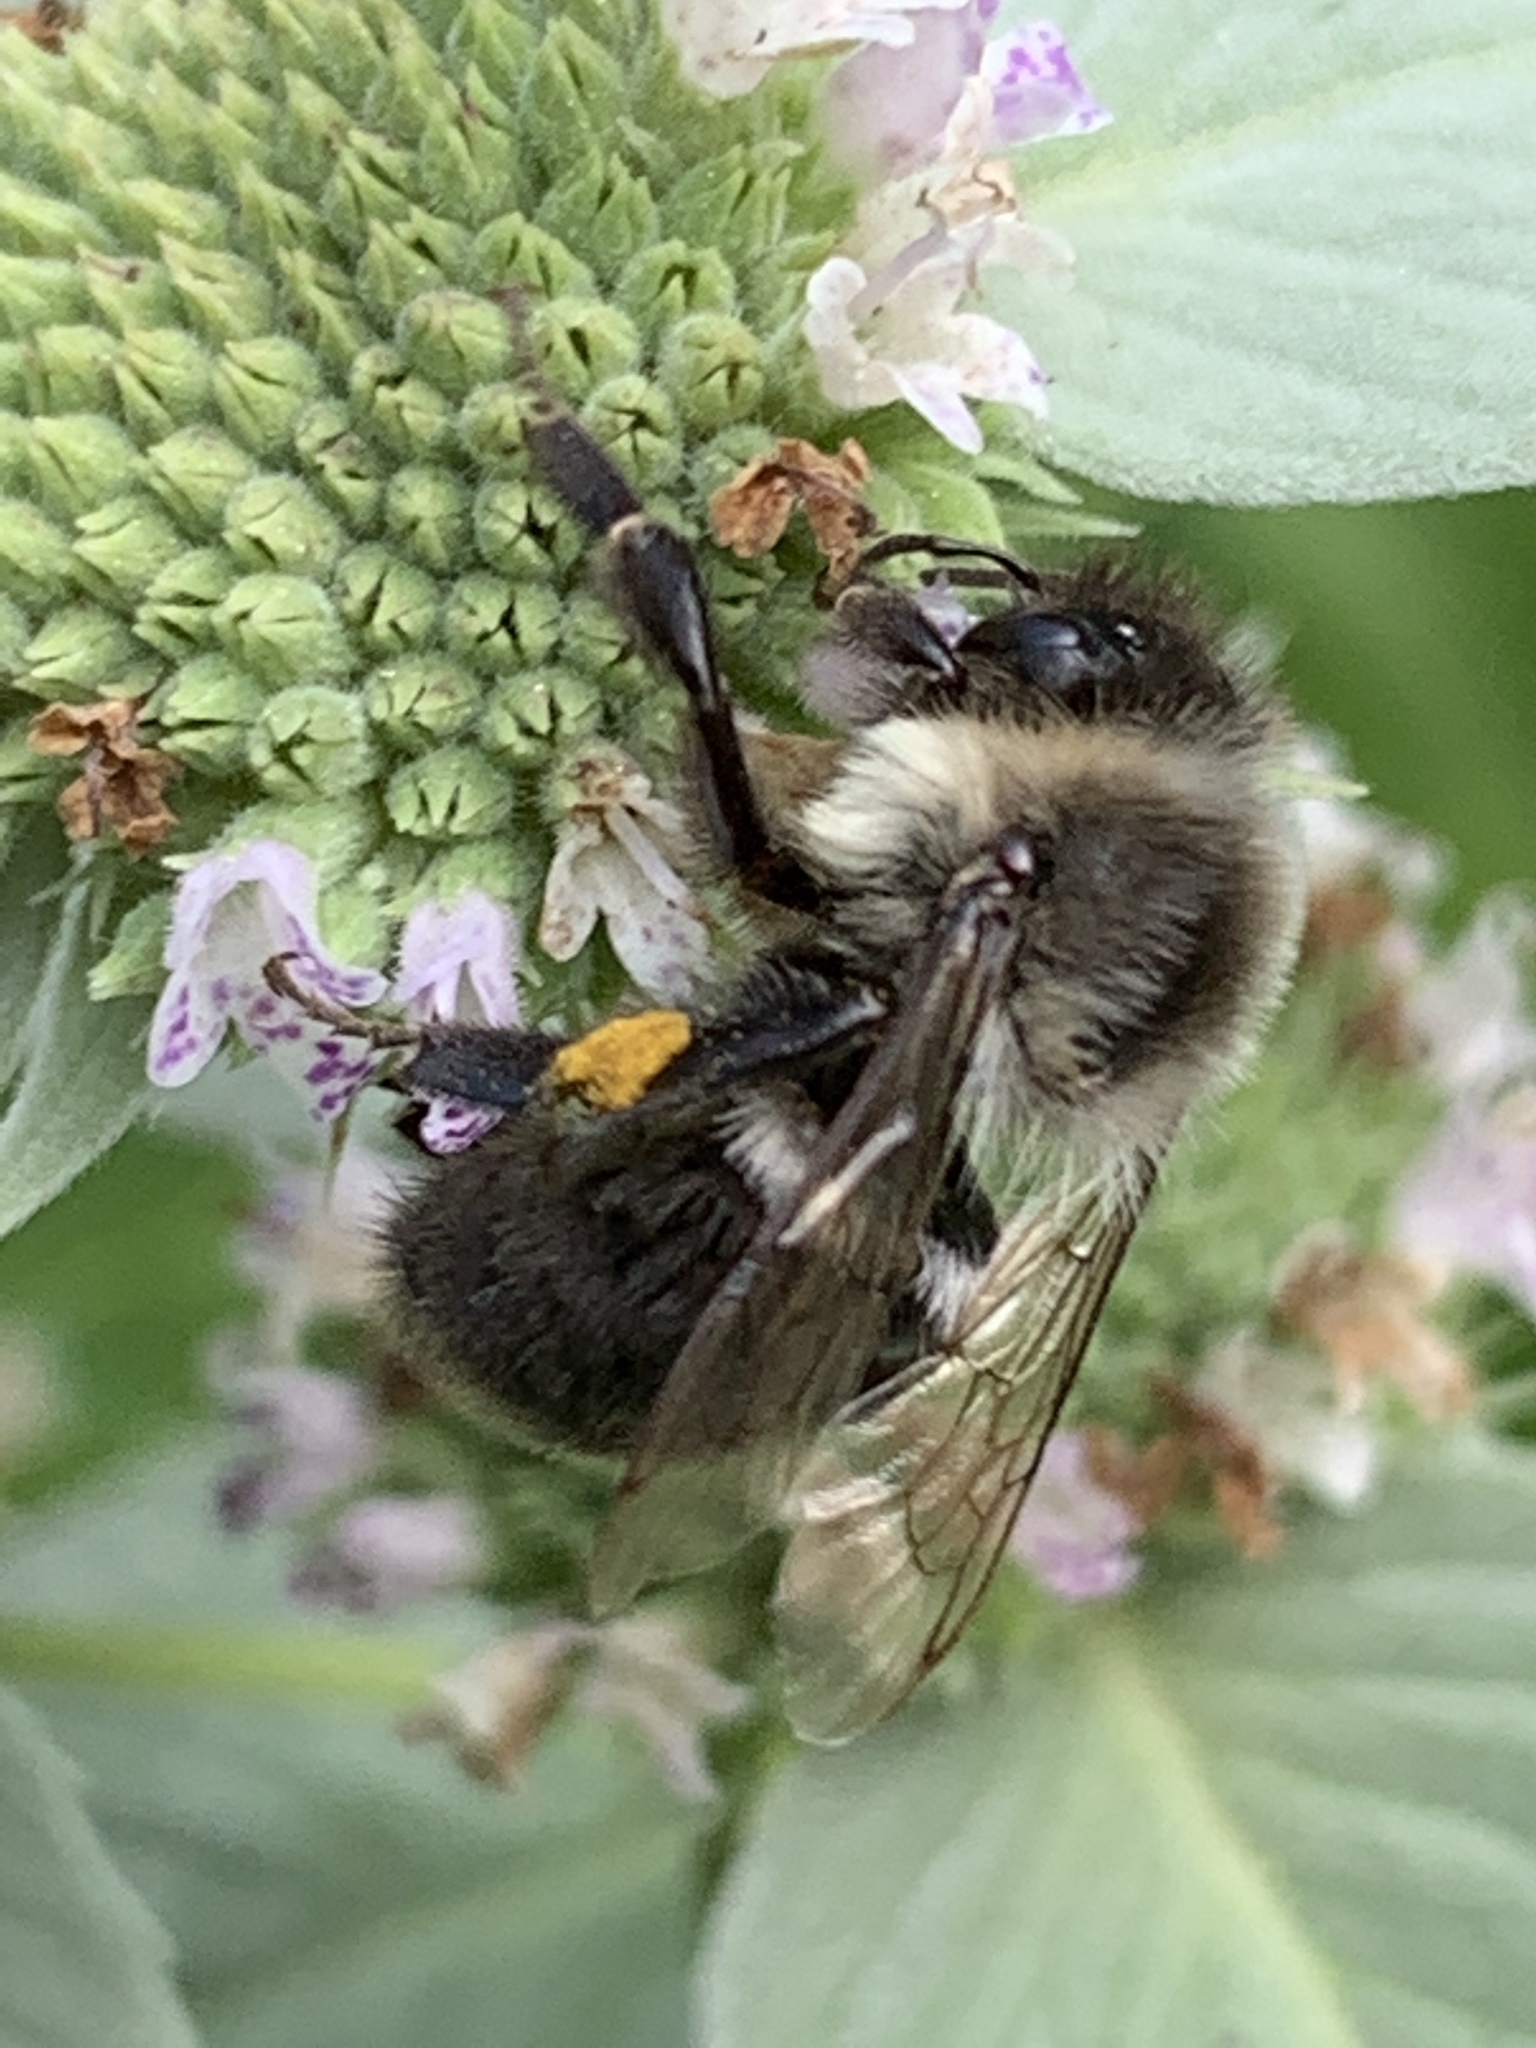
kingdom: Animalia
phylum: Arthropoda
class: Insecta
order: Hymenoptera
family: Apidae
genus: Bombus
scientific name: Bombus impatiens
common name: Common eastern bumble bee
